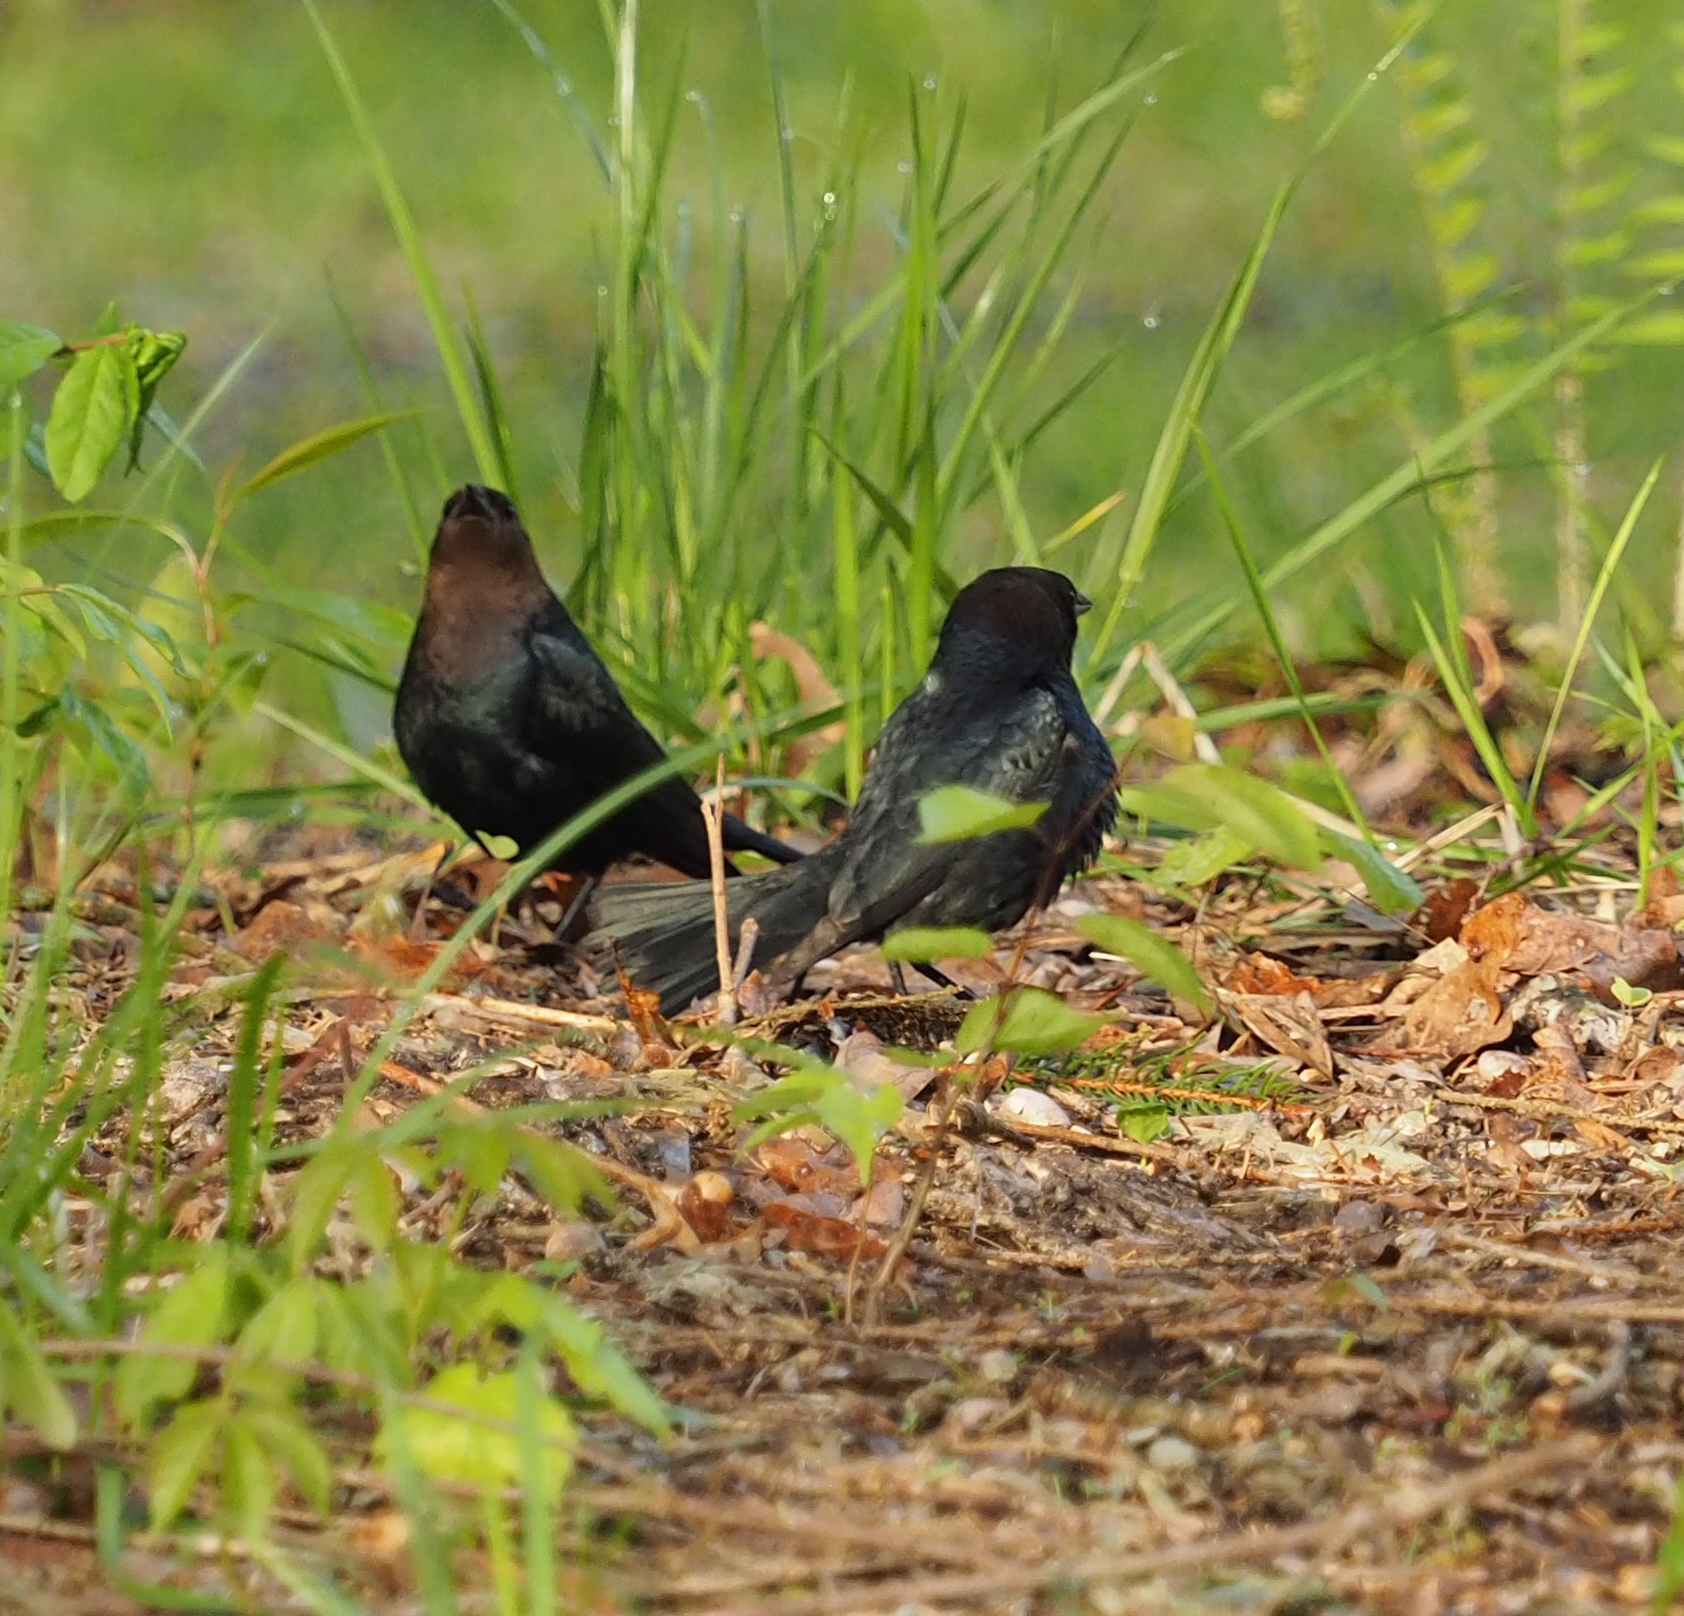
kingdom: Animalia
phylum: Chordata
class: Aves
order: Passeriformes
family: Icteridae
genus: Molothrus
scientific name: Molothrus ater
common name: Brown-headed cowbird
